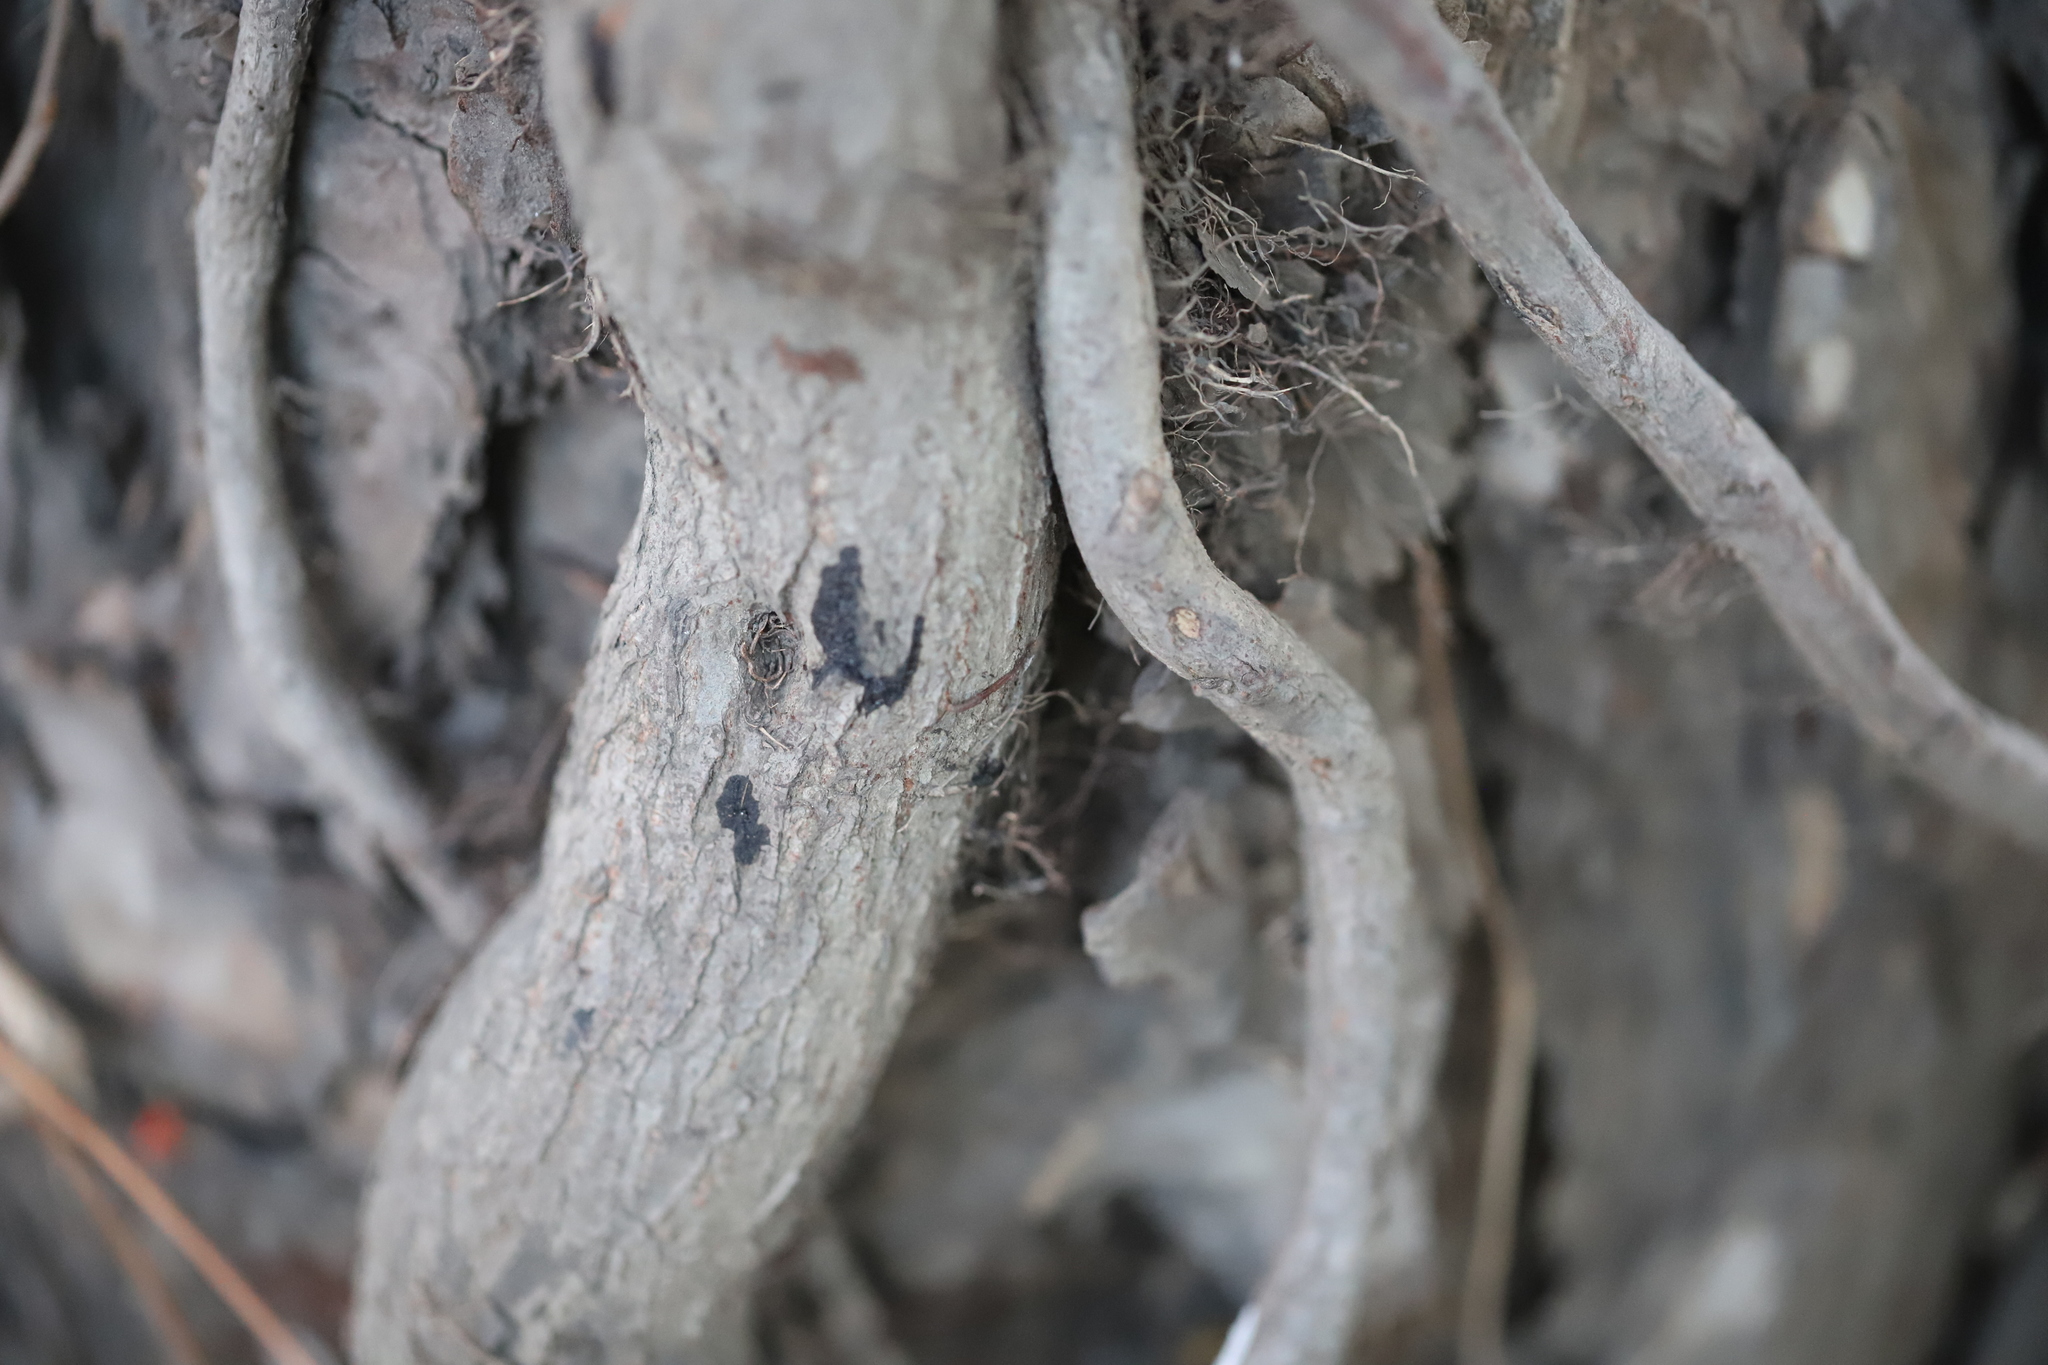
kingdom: Plantae
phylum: Tracheophyta
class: Magnoliopsida
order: Sapindales
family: Anacardiaceae
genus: Toxicodendron
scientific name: Toxicodendron radicans
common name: Poison ivy
